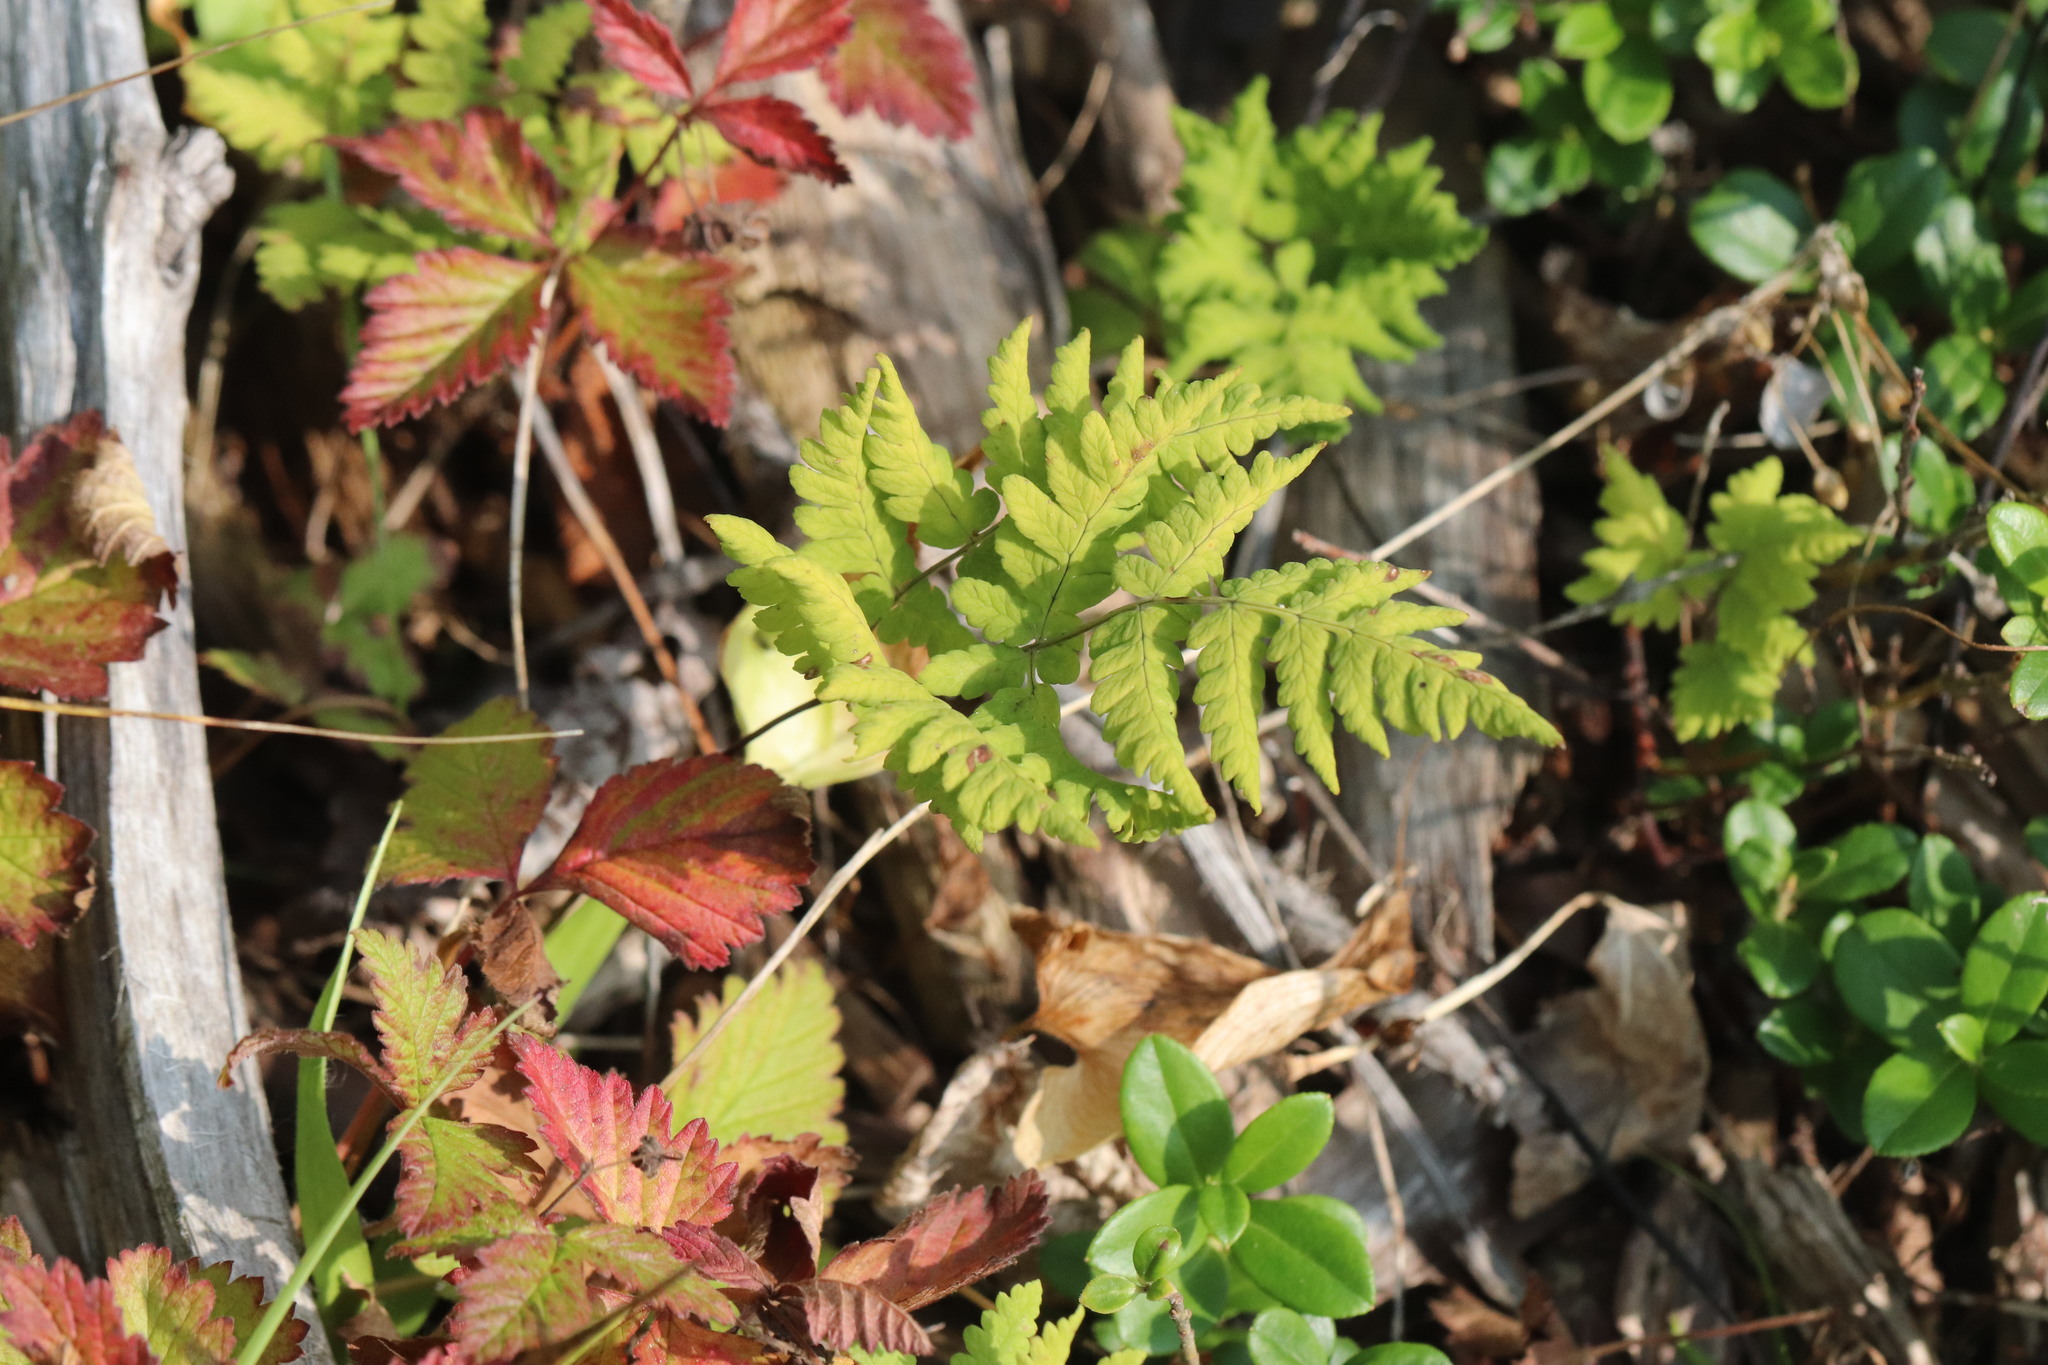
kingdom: Plantae
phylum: Tracheophyta
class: Polypodiopsida
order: Polypodiales
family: Cystopteridaceae
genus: Gymnocarpium
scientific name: Gymnocarpium dryopteris
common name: Oak fern
